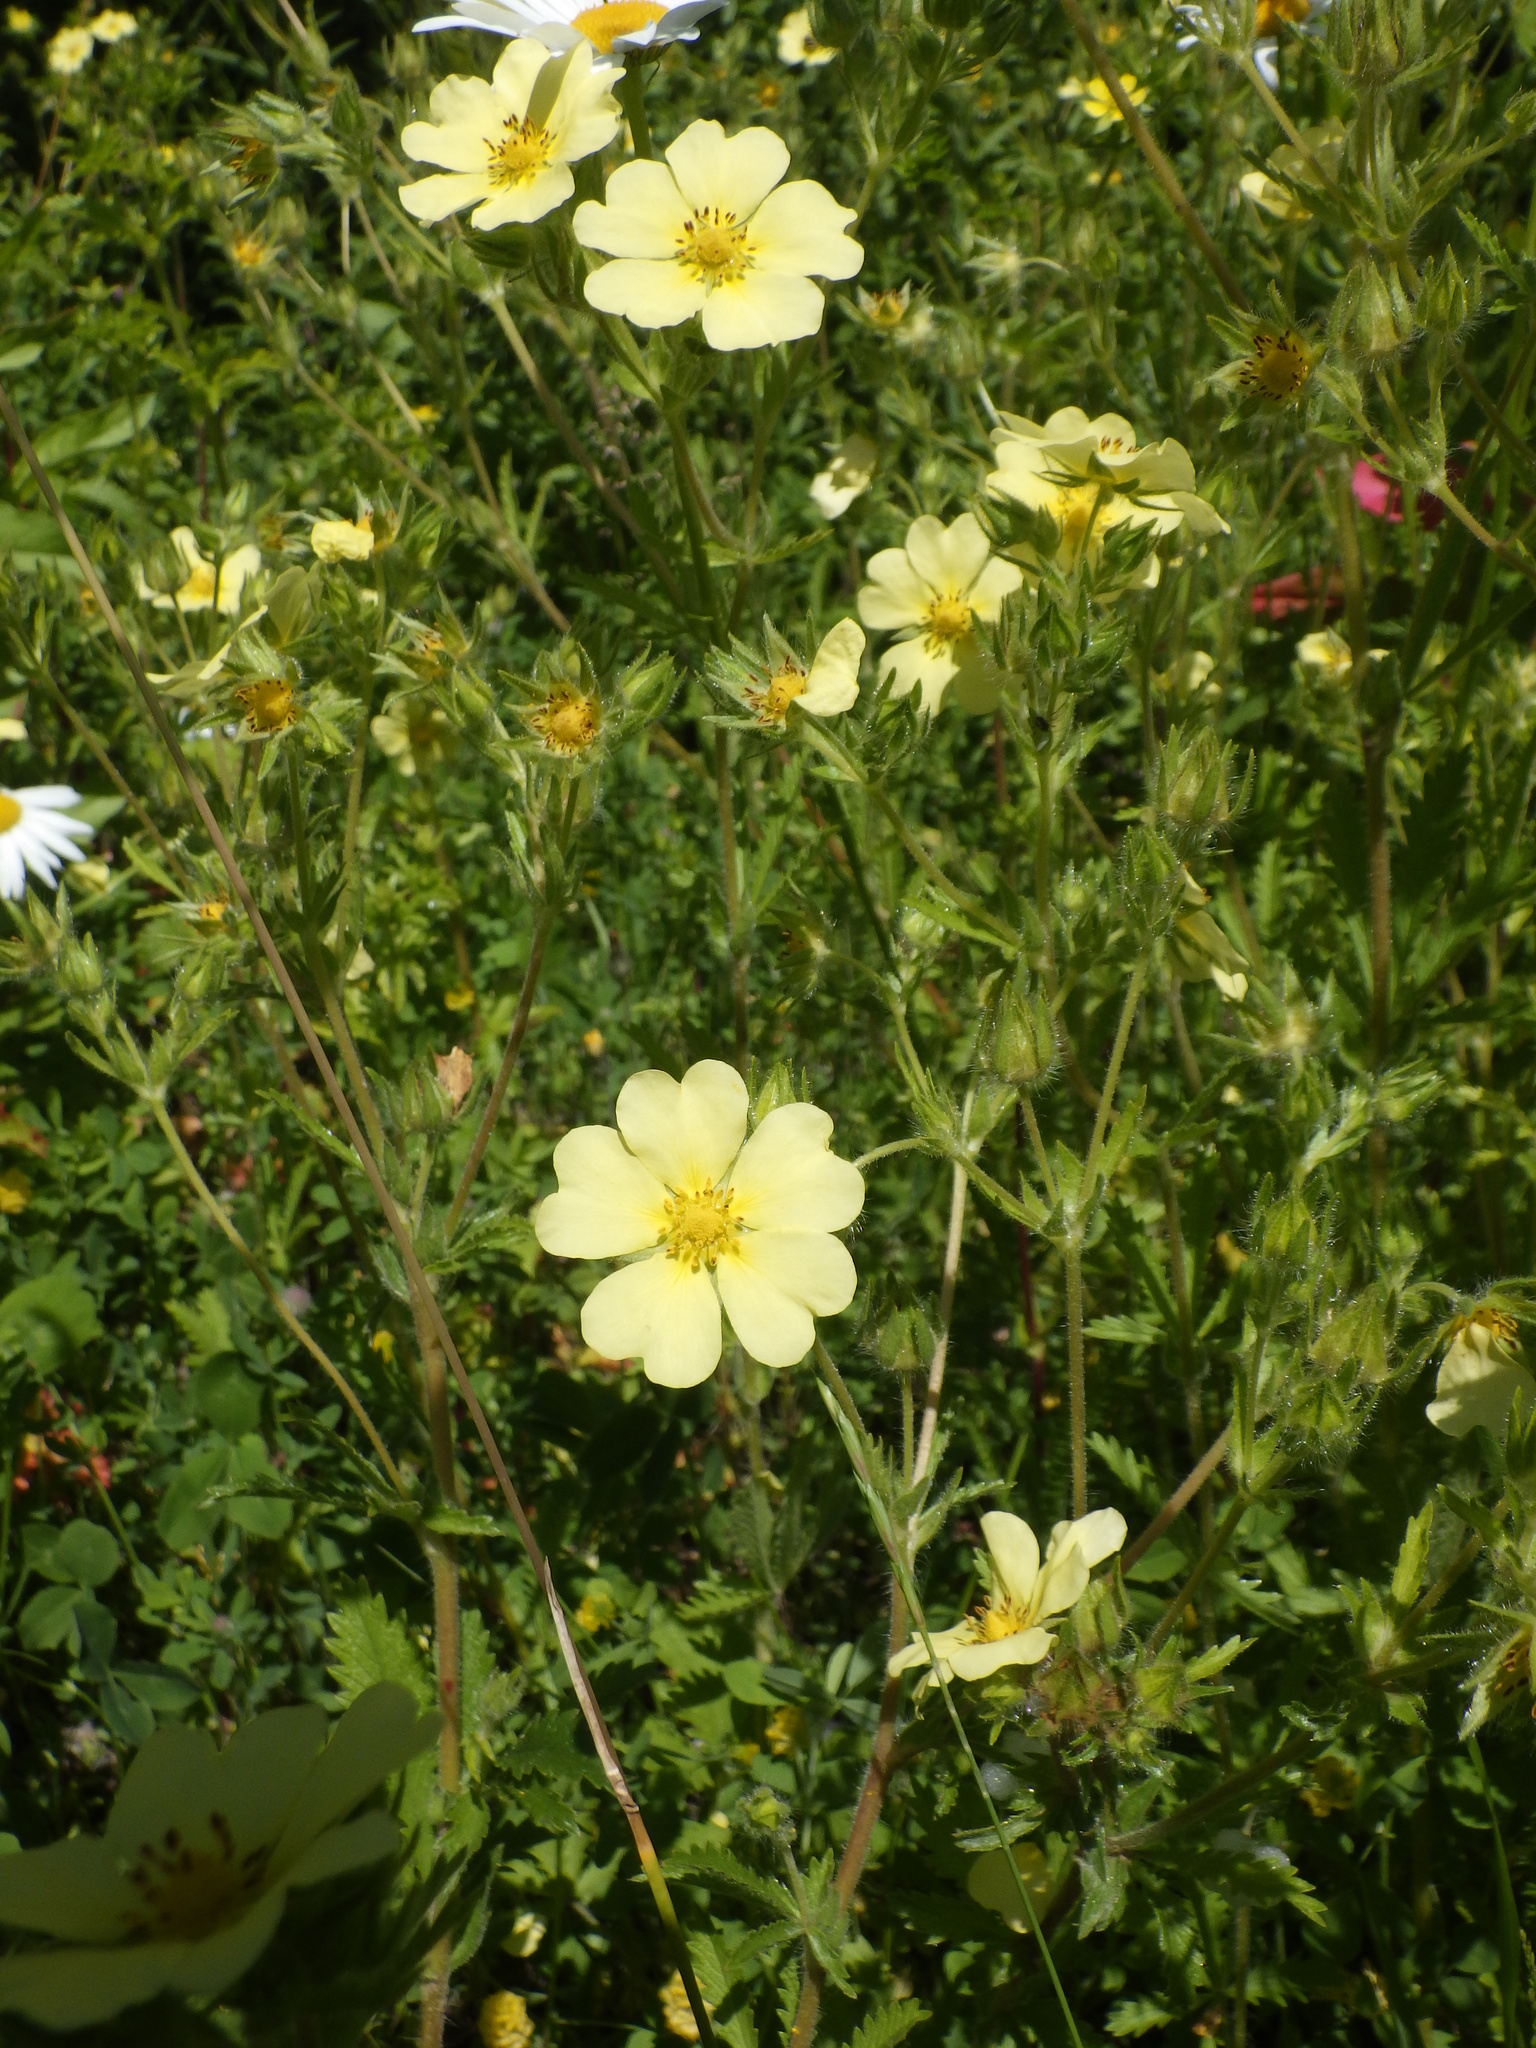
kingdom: Plantae
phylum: Tracheophyta
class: Magnoliopsida
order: Rosales
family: Rosaceae
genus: Potentilla
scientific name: Potentilla recta
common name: Sulphur cinquefoil
